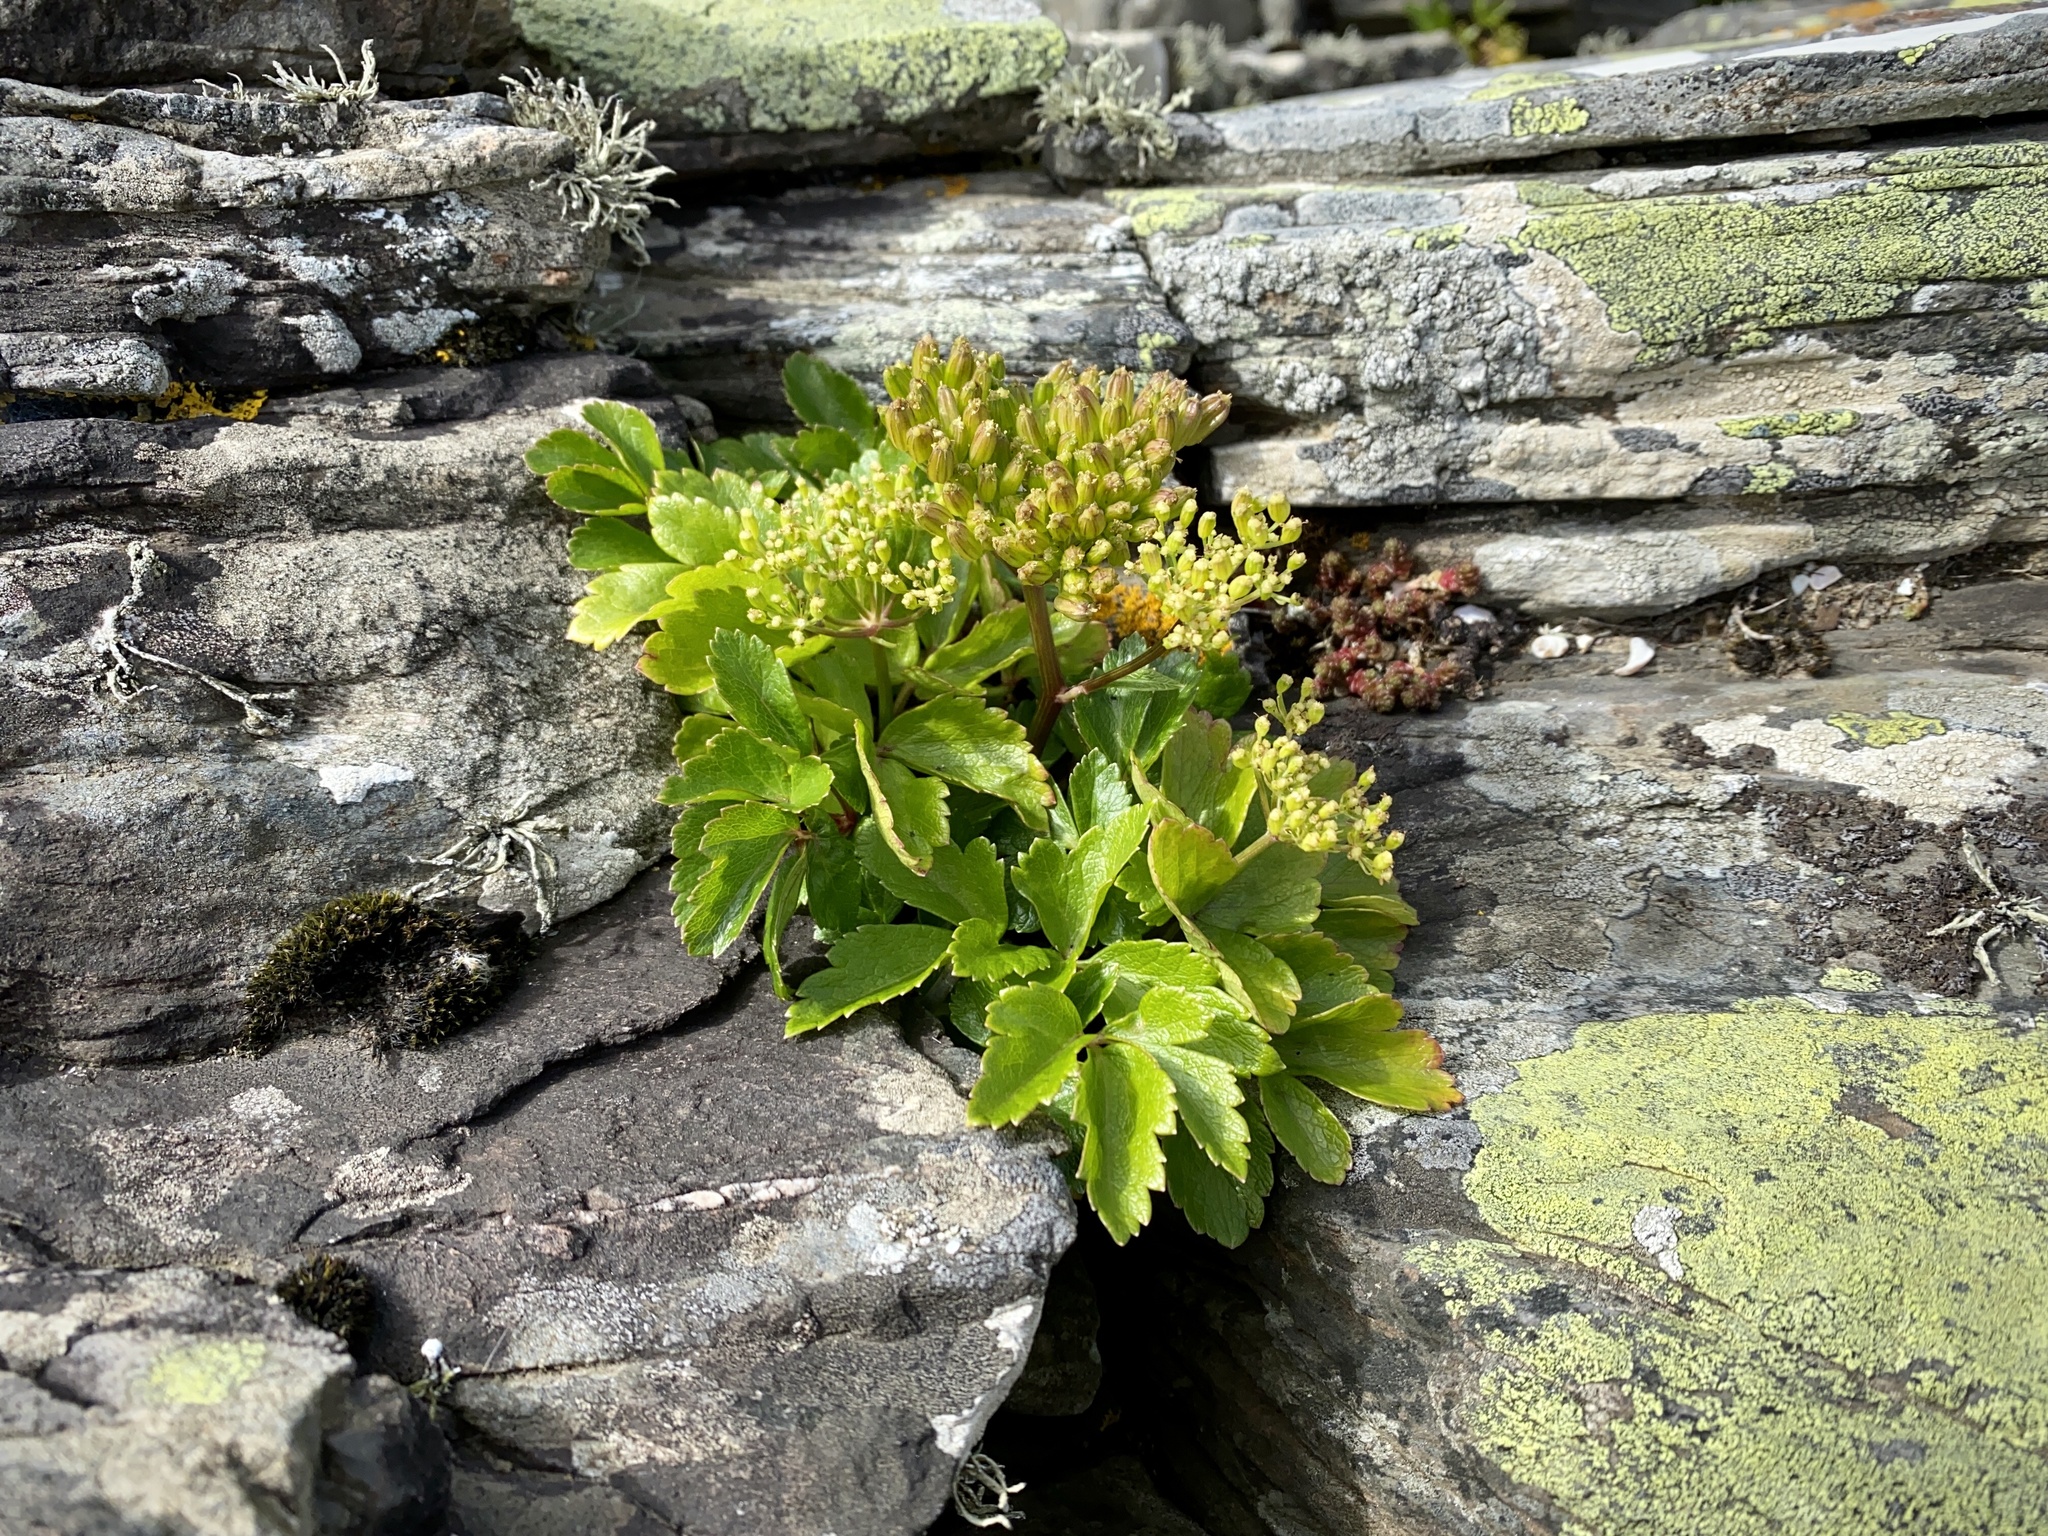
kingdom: Plantae
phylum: Tracheophyta
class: Magnoliopsida
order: Apiales
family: Apiaceae
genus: Ligusticum
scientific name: Ligusticum scothicum
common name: Beach lovage
